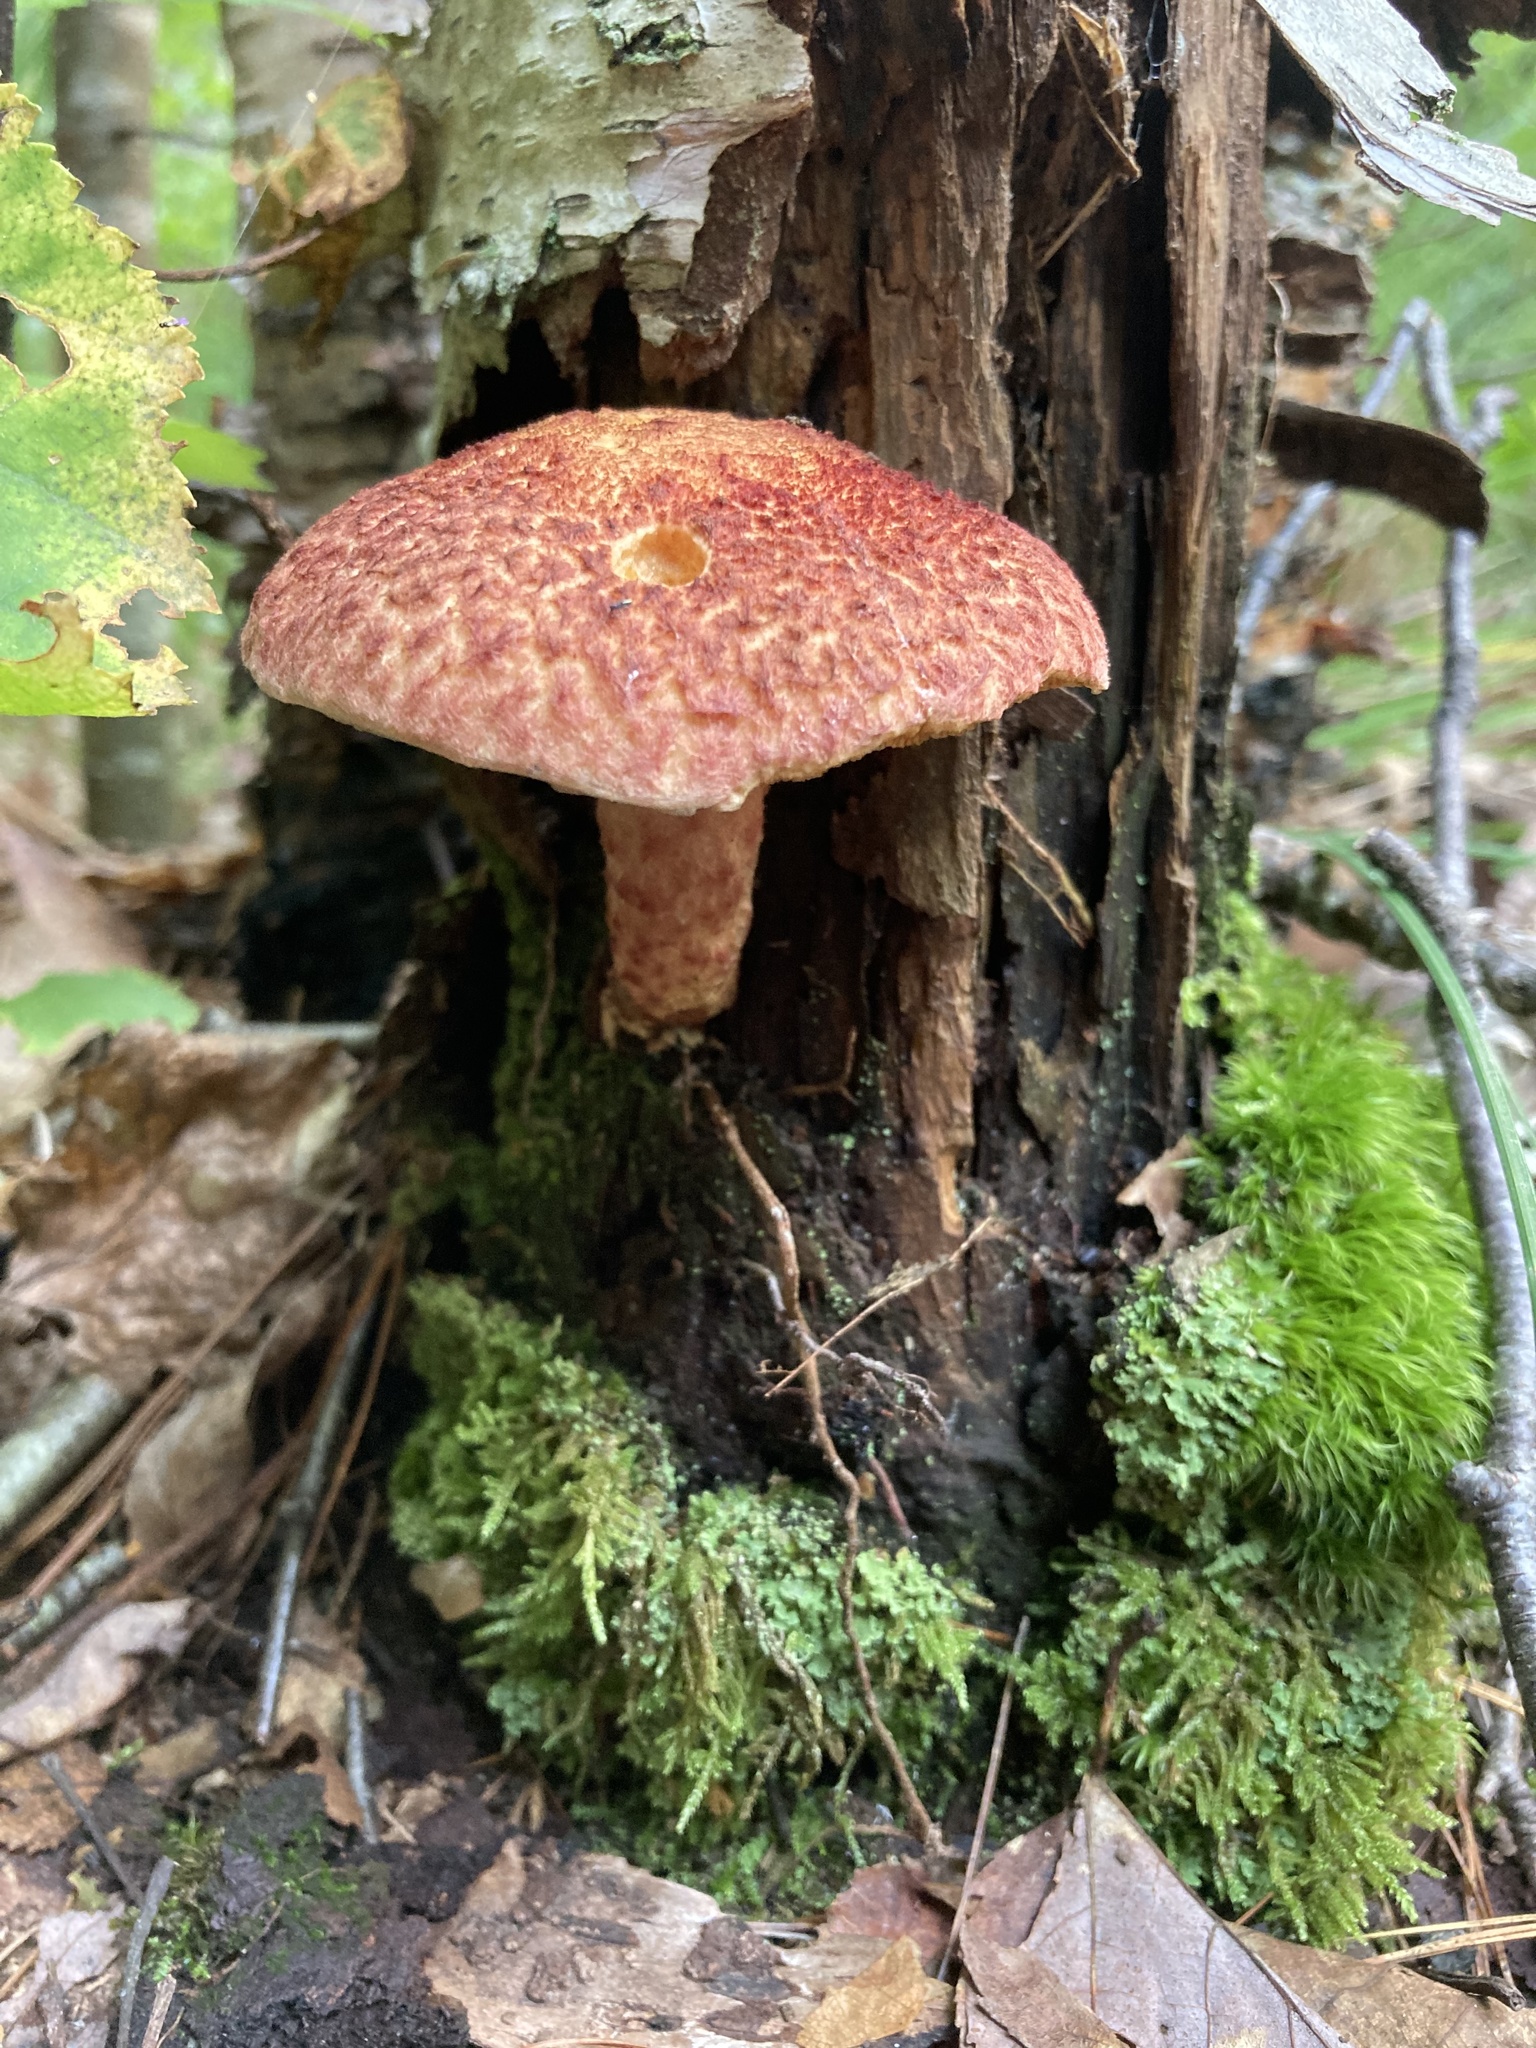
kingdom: Fungi
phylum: Basidiomycota
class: Agaricomycetes
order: Boletales
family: Suillaceae
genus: Suillus
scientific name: Suillus spraguei
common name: Painted suillus
